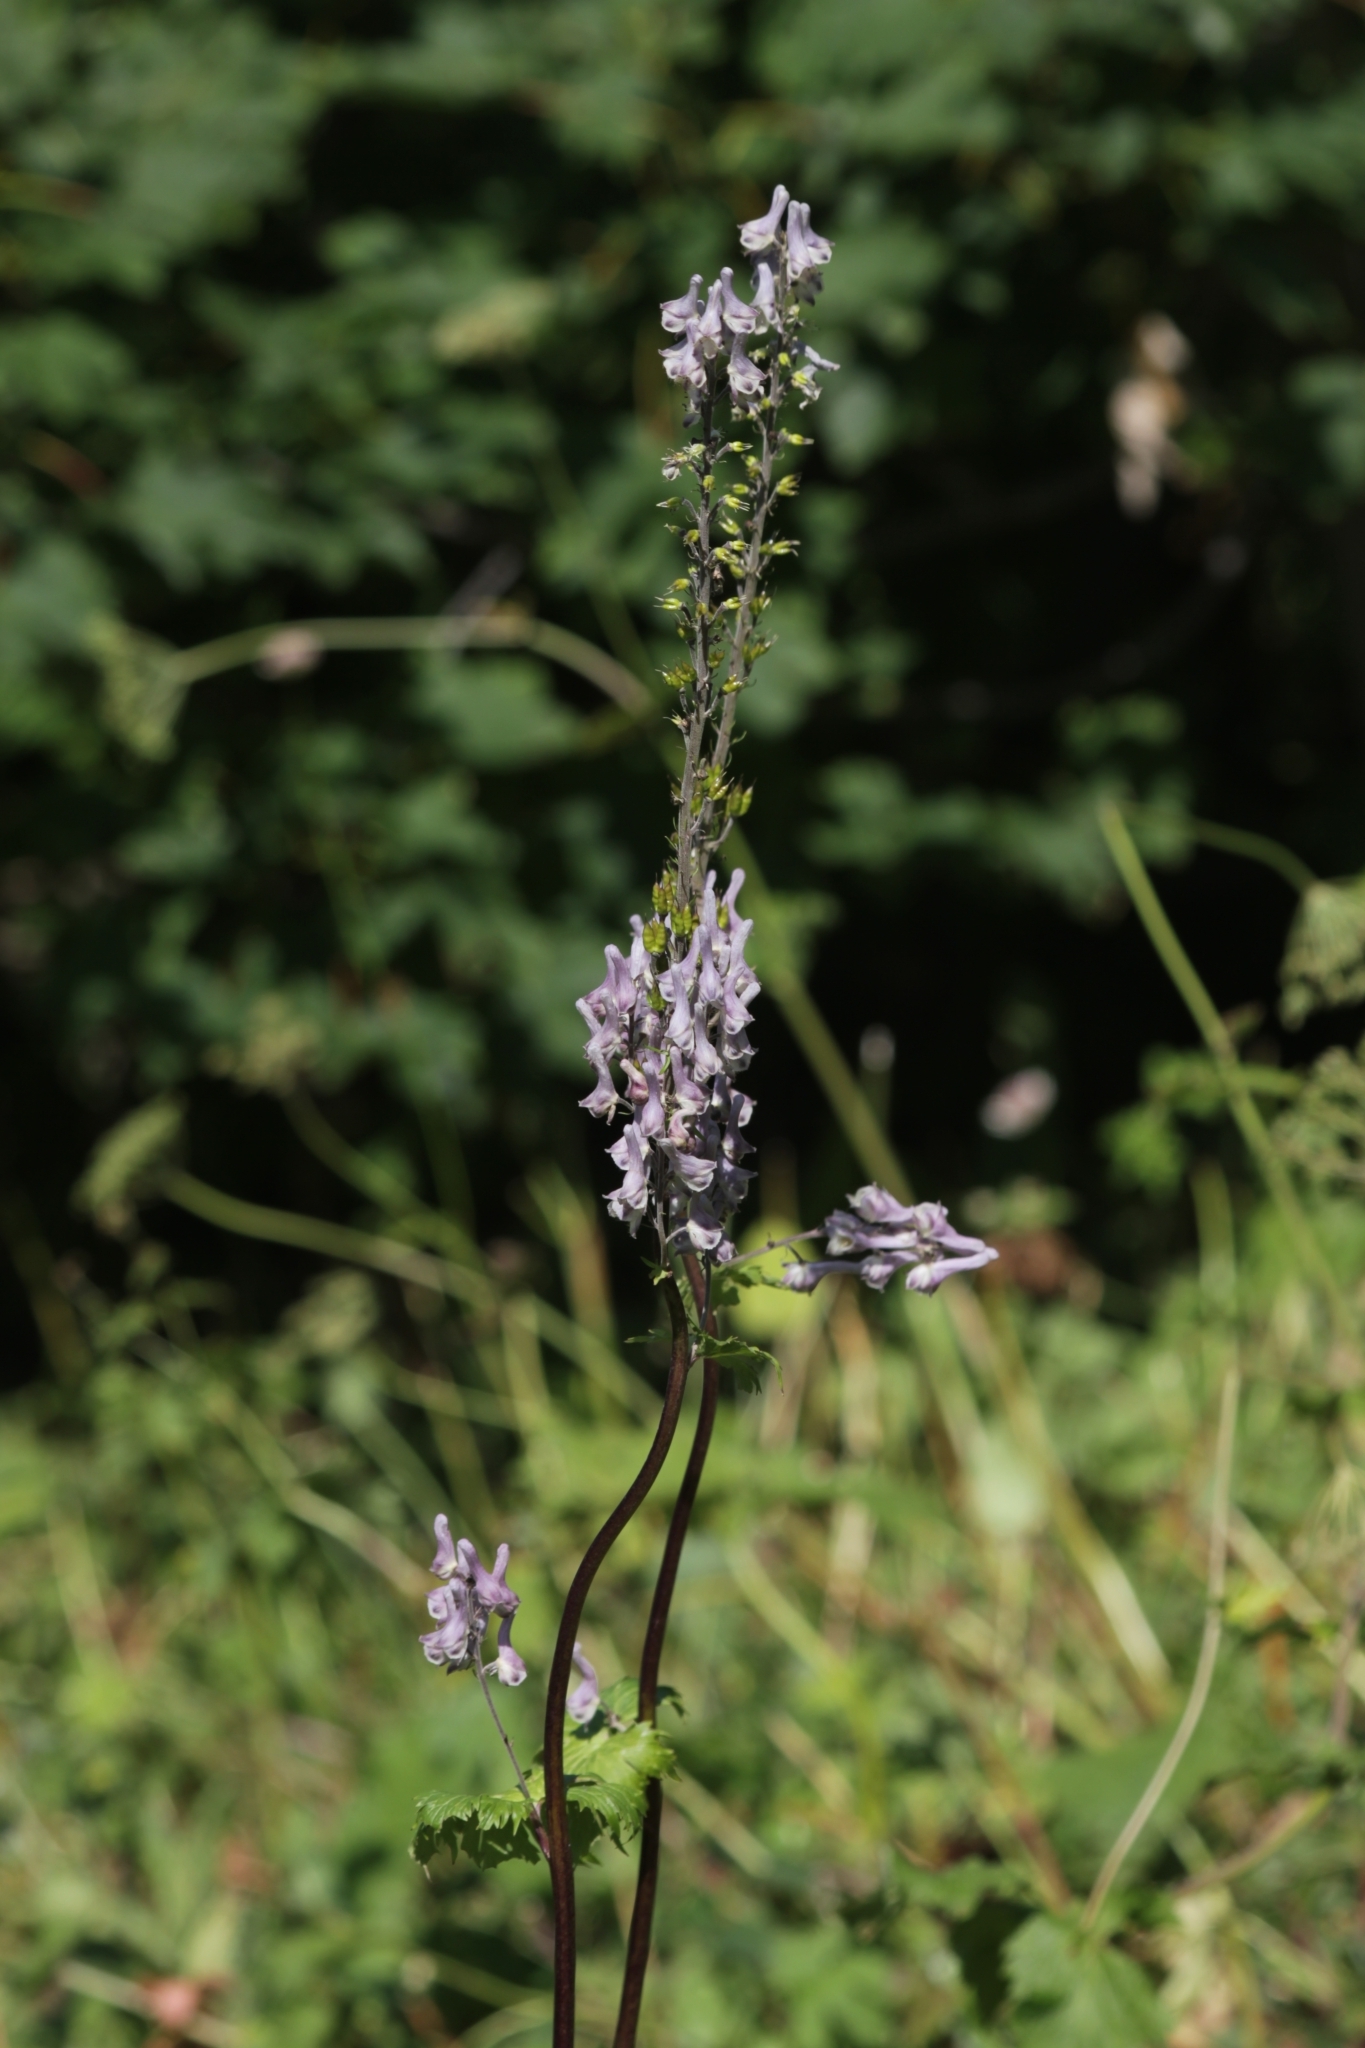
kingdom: Plantae
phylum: Tracheophyta
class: Magnoliopsida
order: Ranunculales
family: Ranunculaceae
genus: Aconitum
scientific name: Aconitum orientale
